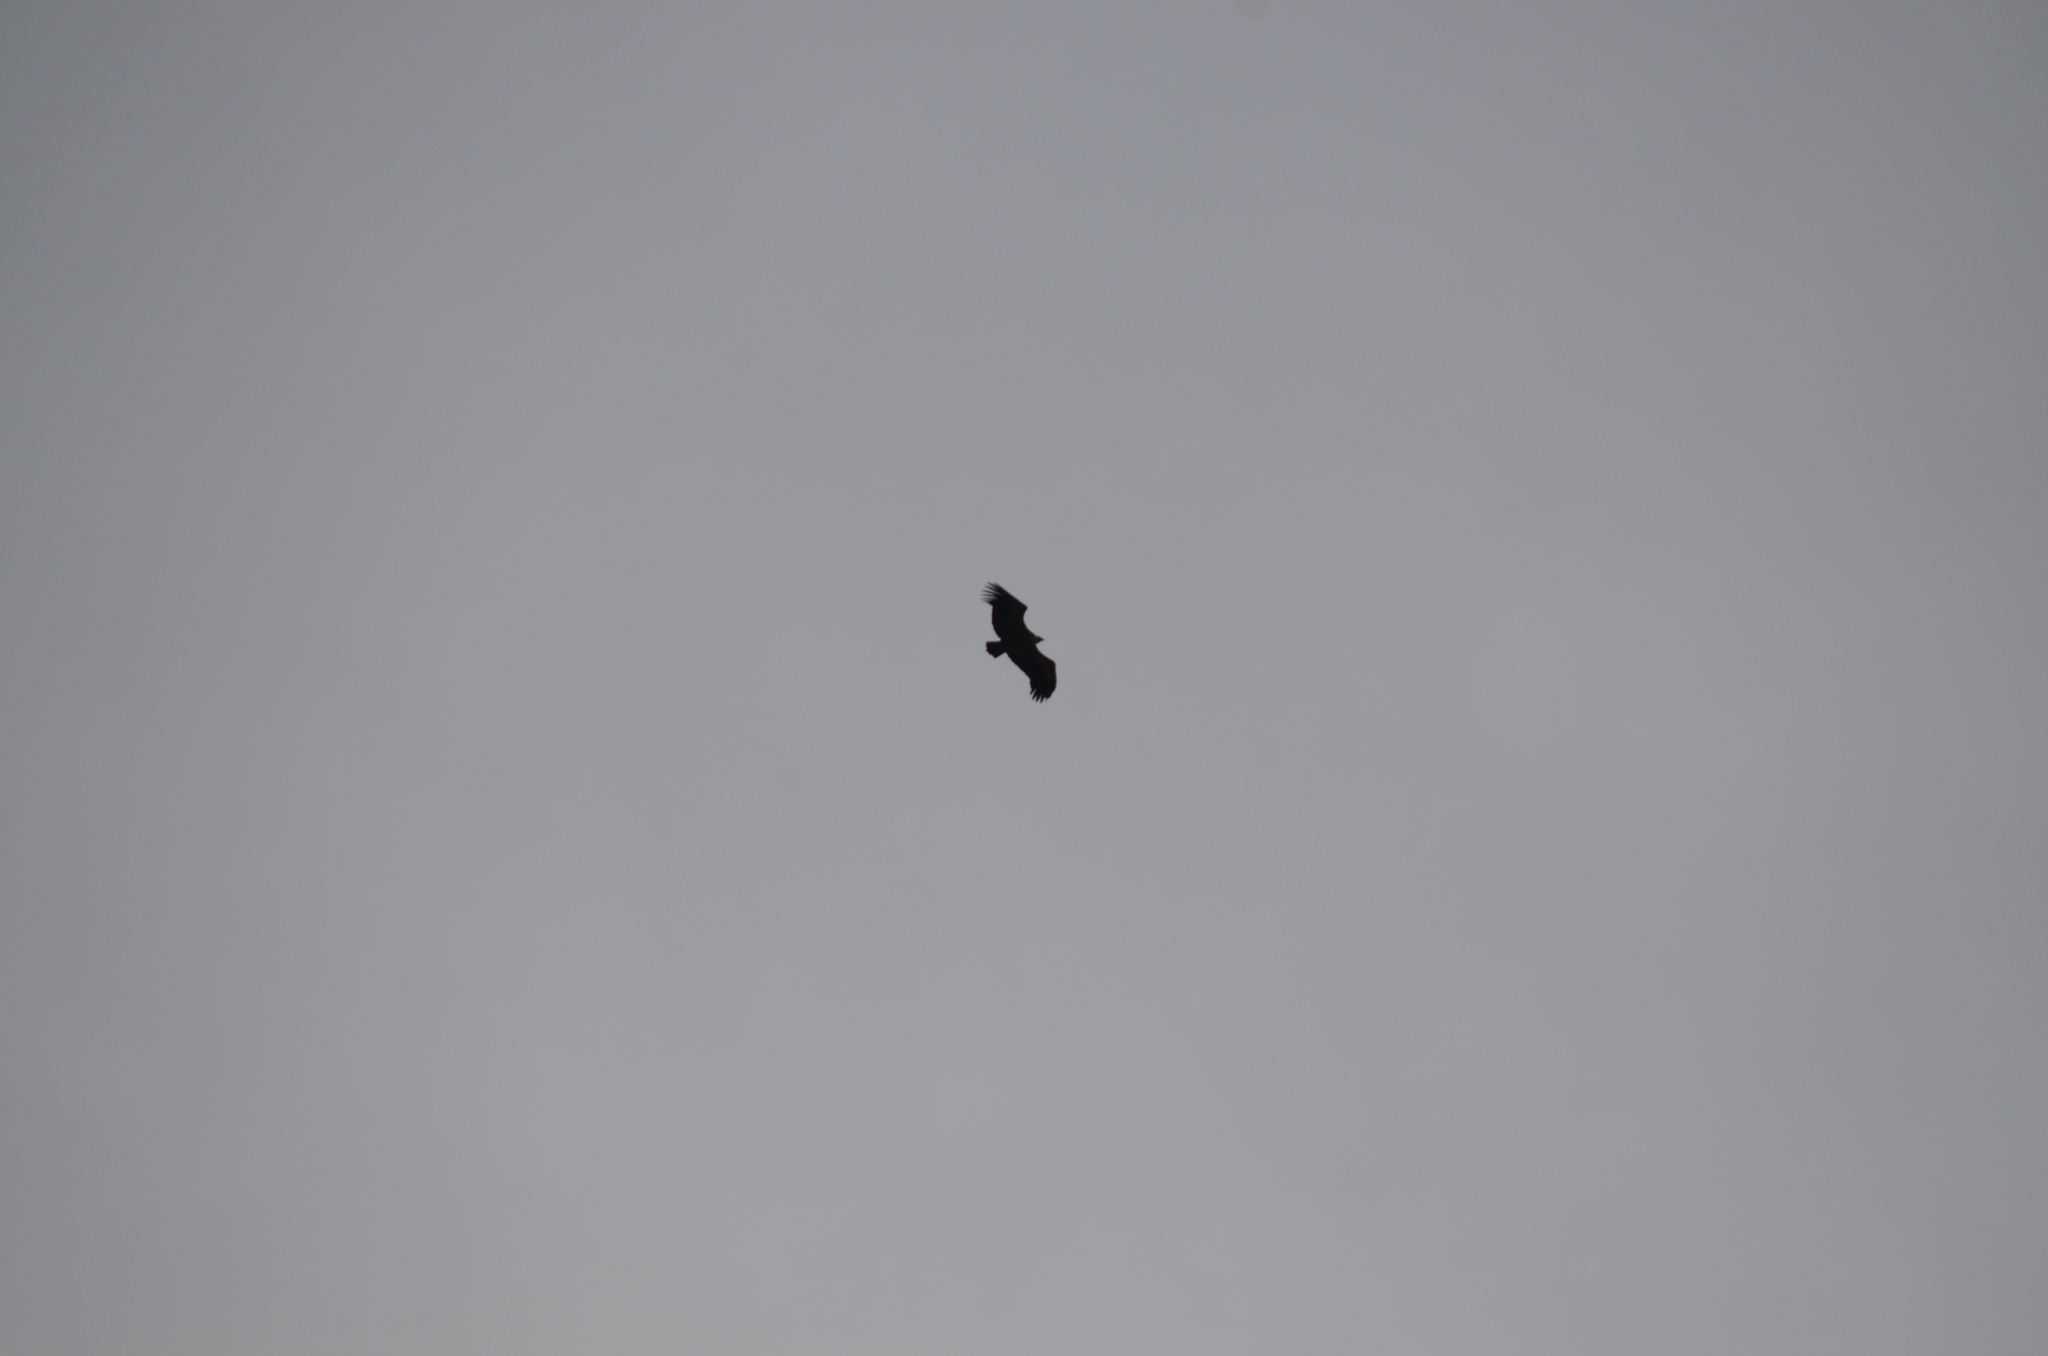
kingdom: Animalia
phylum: Chordata
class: Aves
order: Accipitriformes
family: Accipitridae
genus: Gyps
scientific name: Gyps fulvus
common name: Griffon vulture
